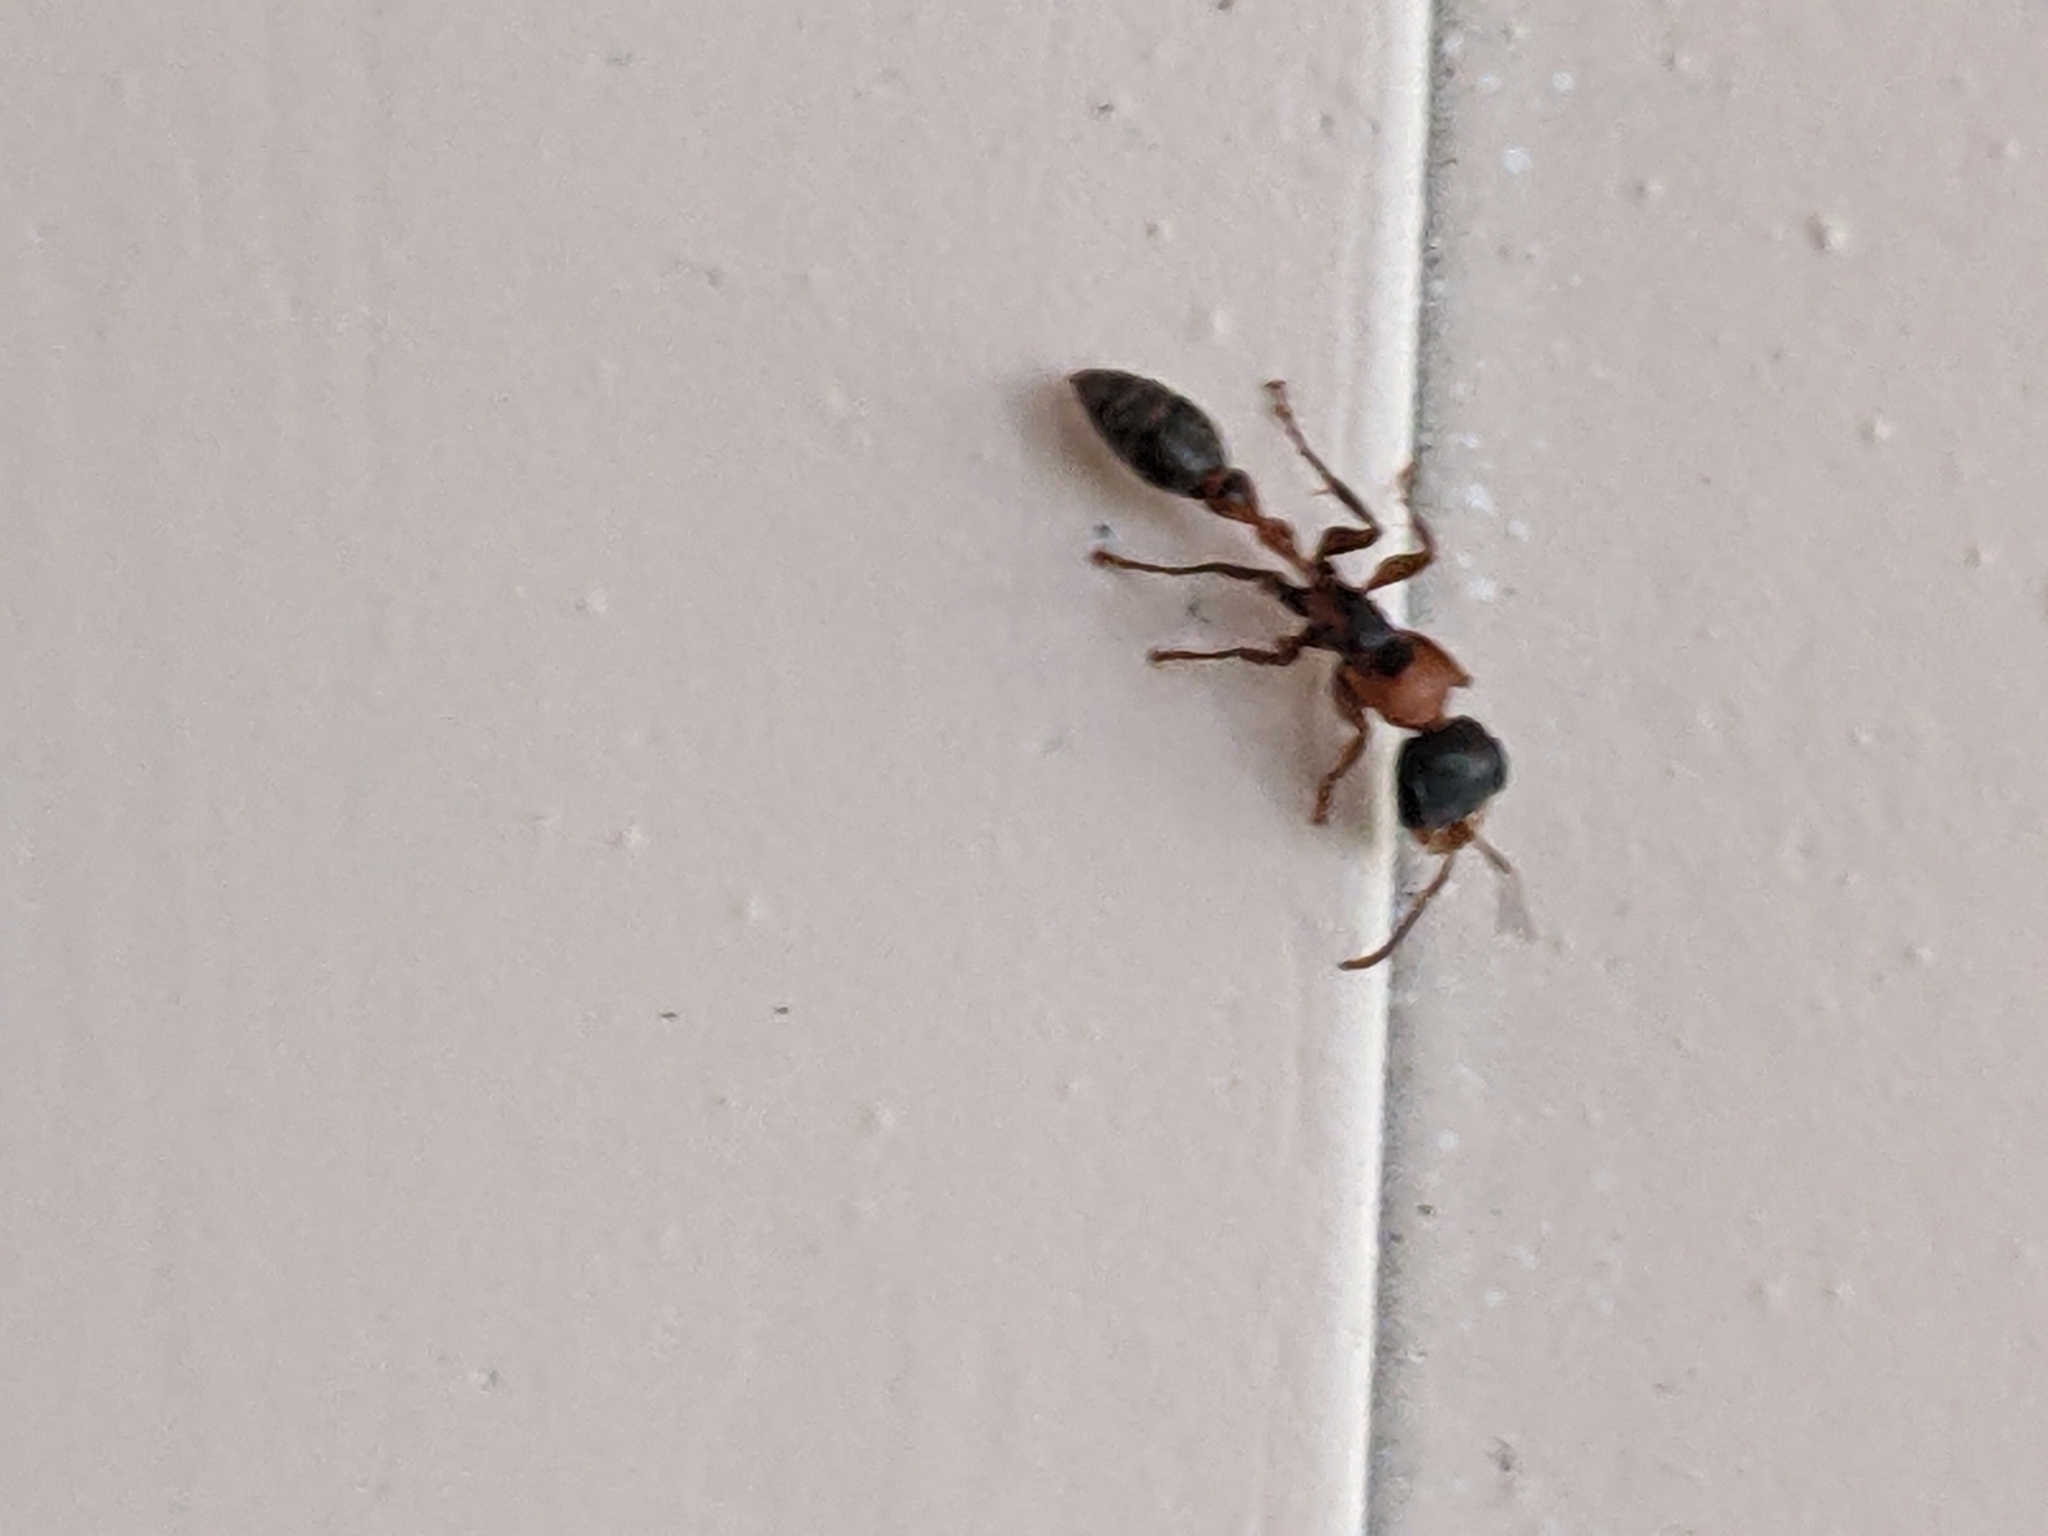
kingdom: Animalia
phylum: Arthropoda
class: Insecta
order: Hymenoptera
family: Formicidae
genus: Pseudomyrmex
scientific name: Pseudomyrmex gracilis
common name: Graceful twig ant
